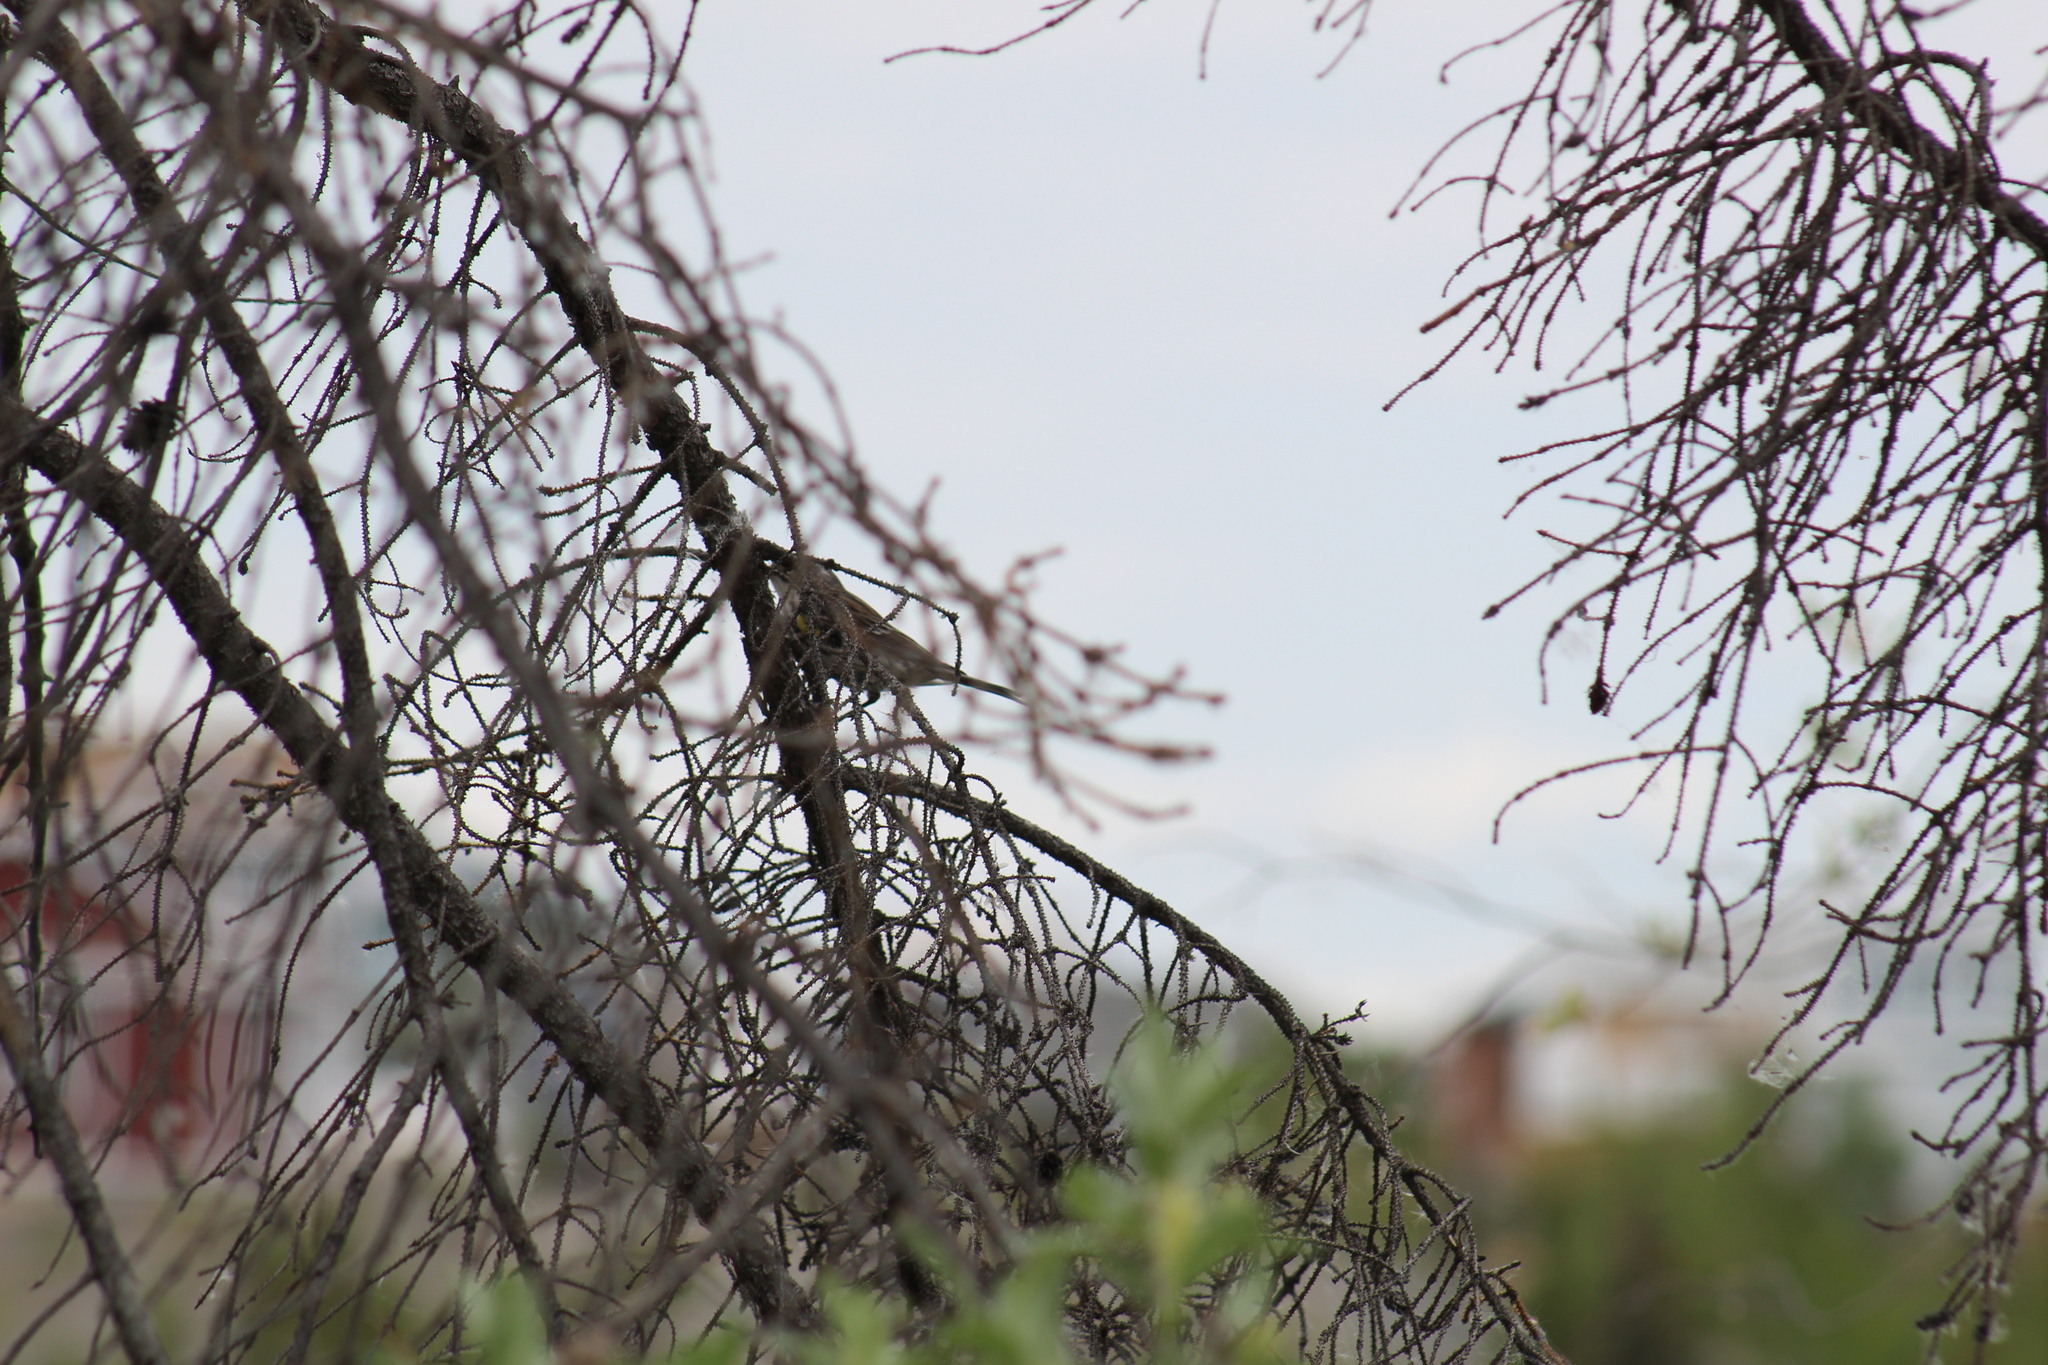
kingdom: Animalia
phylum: Chordata
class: Aves
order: Passeriformes
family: Parulidae
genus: Setophaga
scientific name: Setophaga coronata
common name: Myrtle warbler
